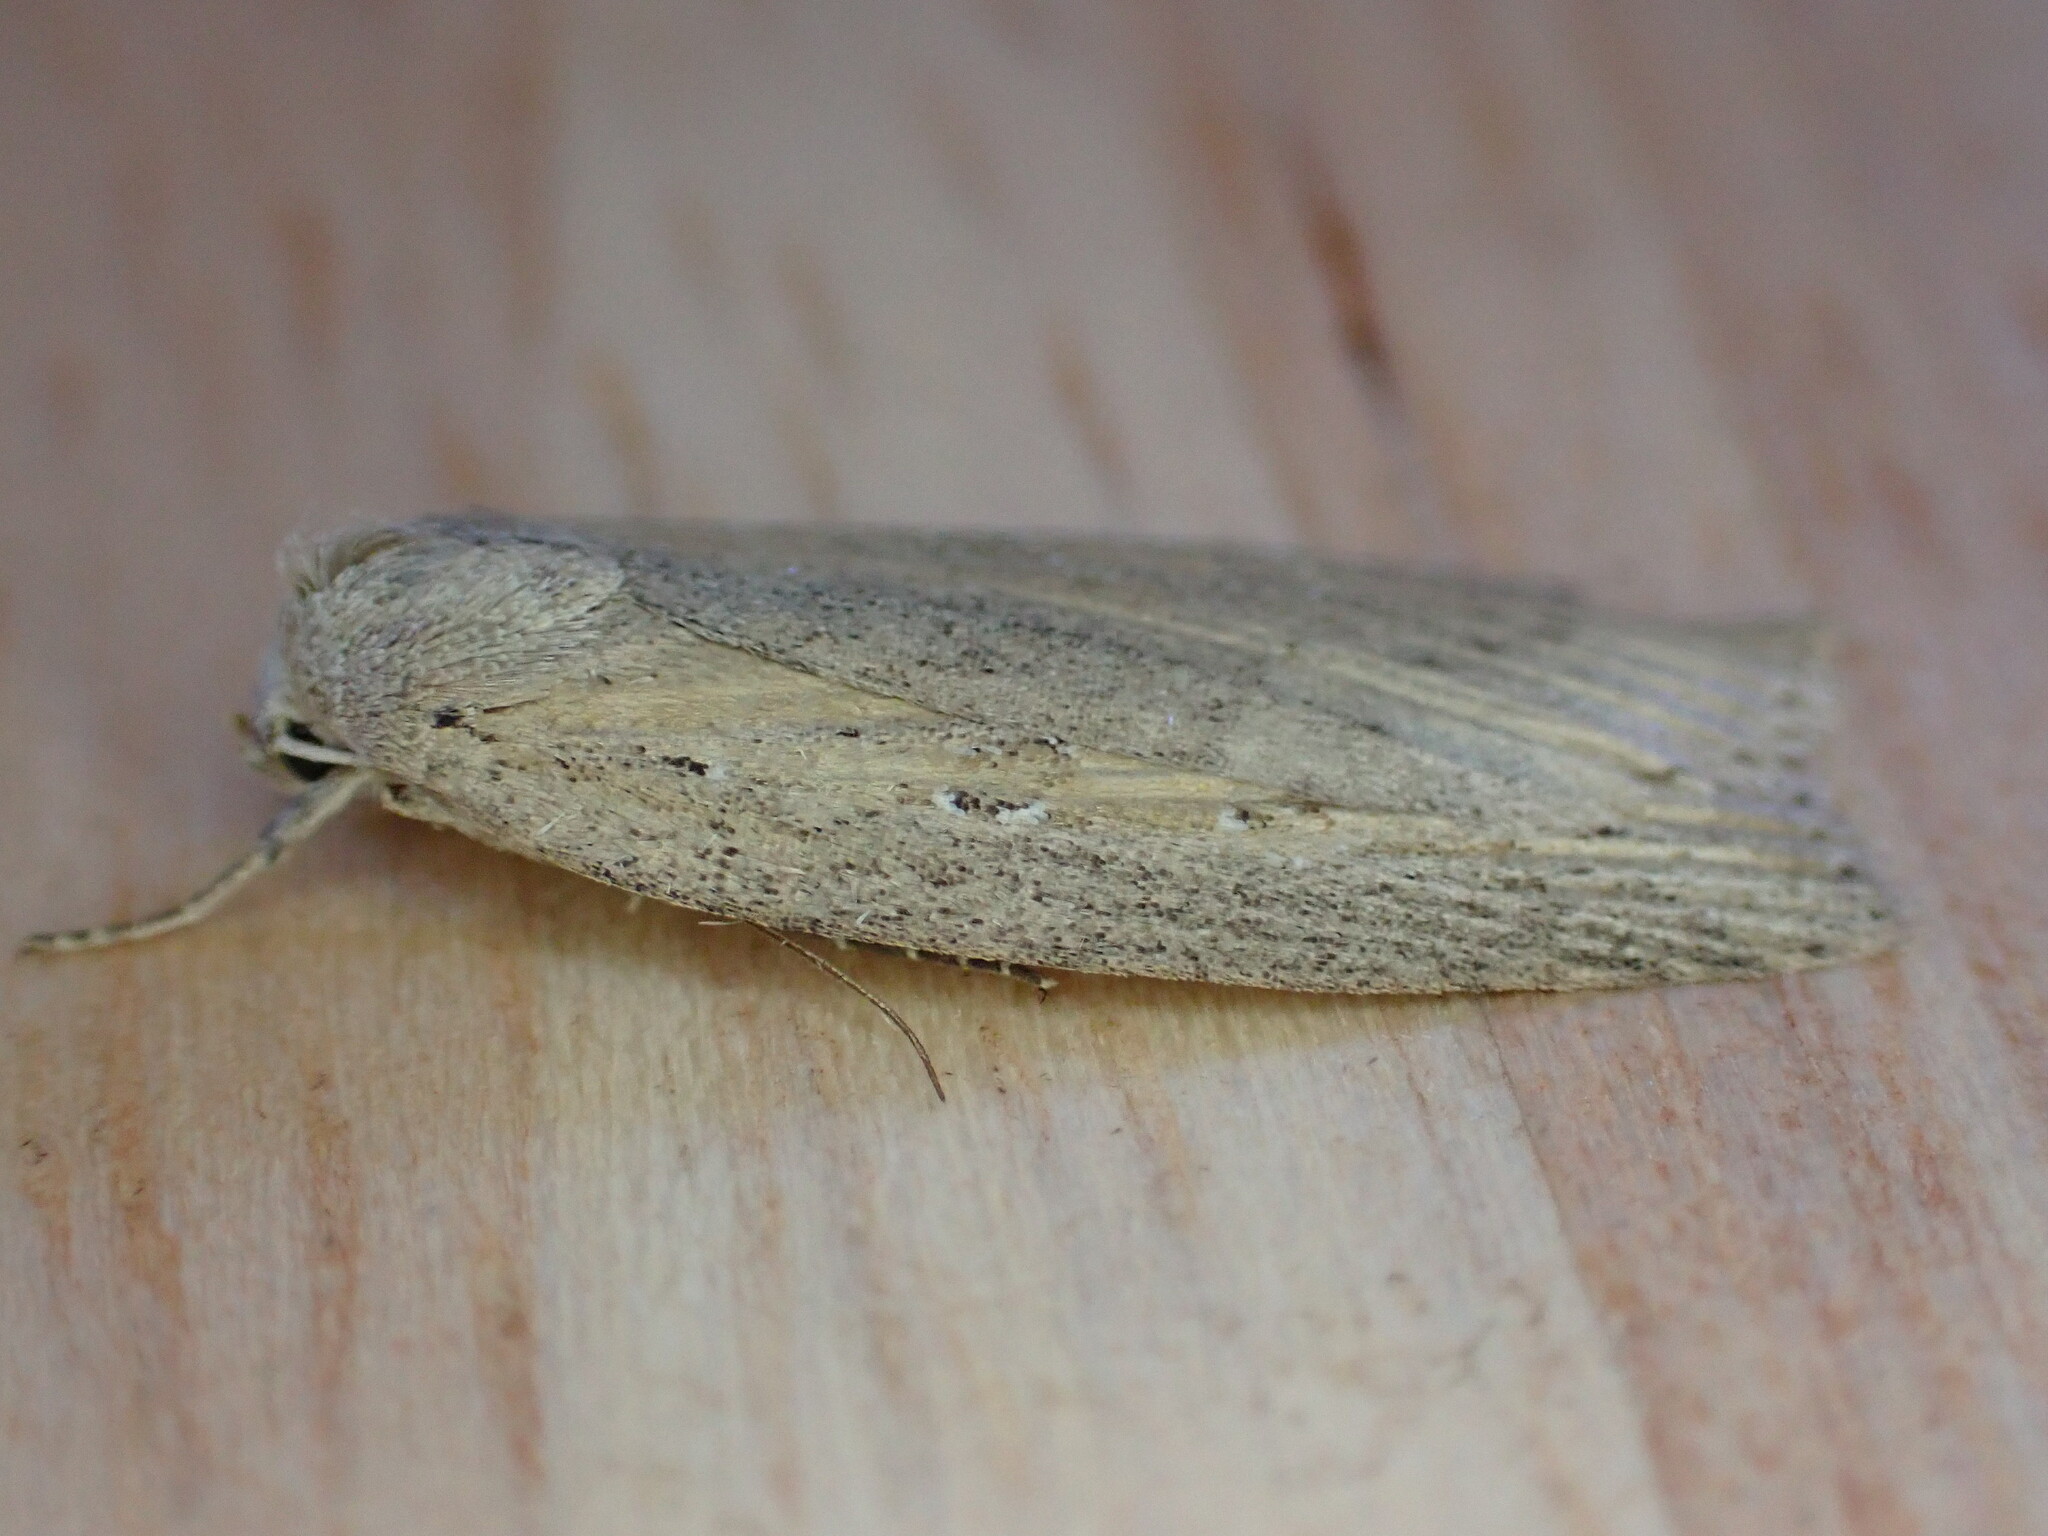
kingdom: Animalia
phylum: Arthropoda
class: Insecta
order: Lepidoptera
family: Noctuidae
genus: Chilodes
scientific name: Chilodes maritima
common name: Silky wainscot
